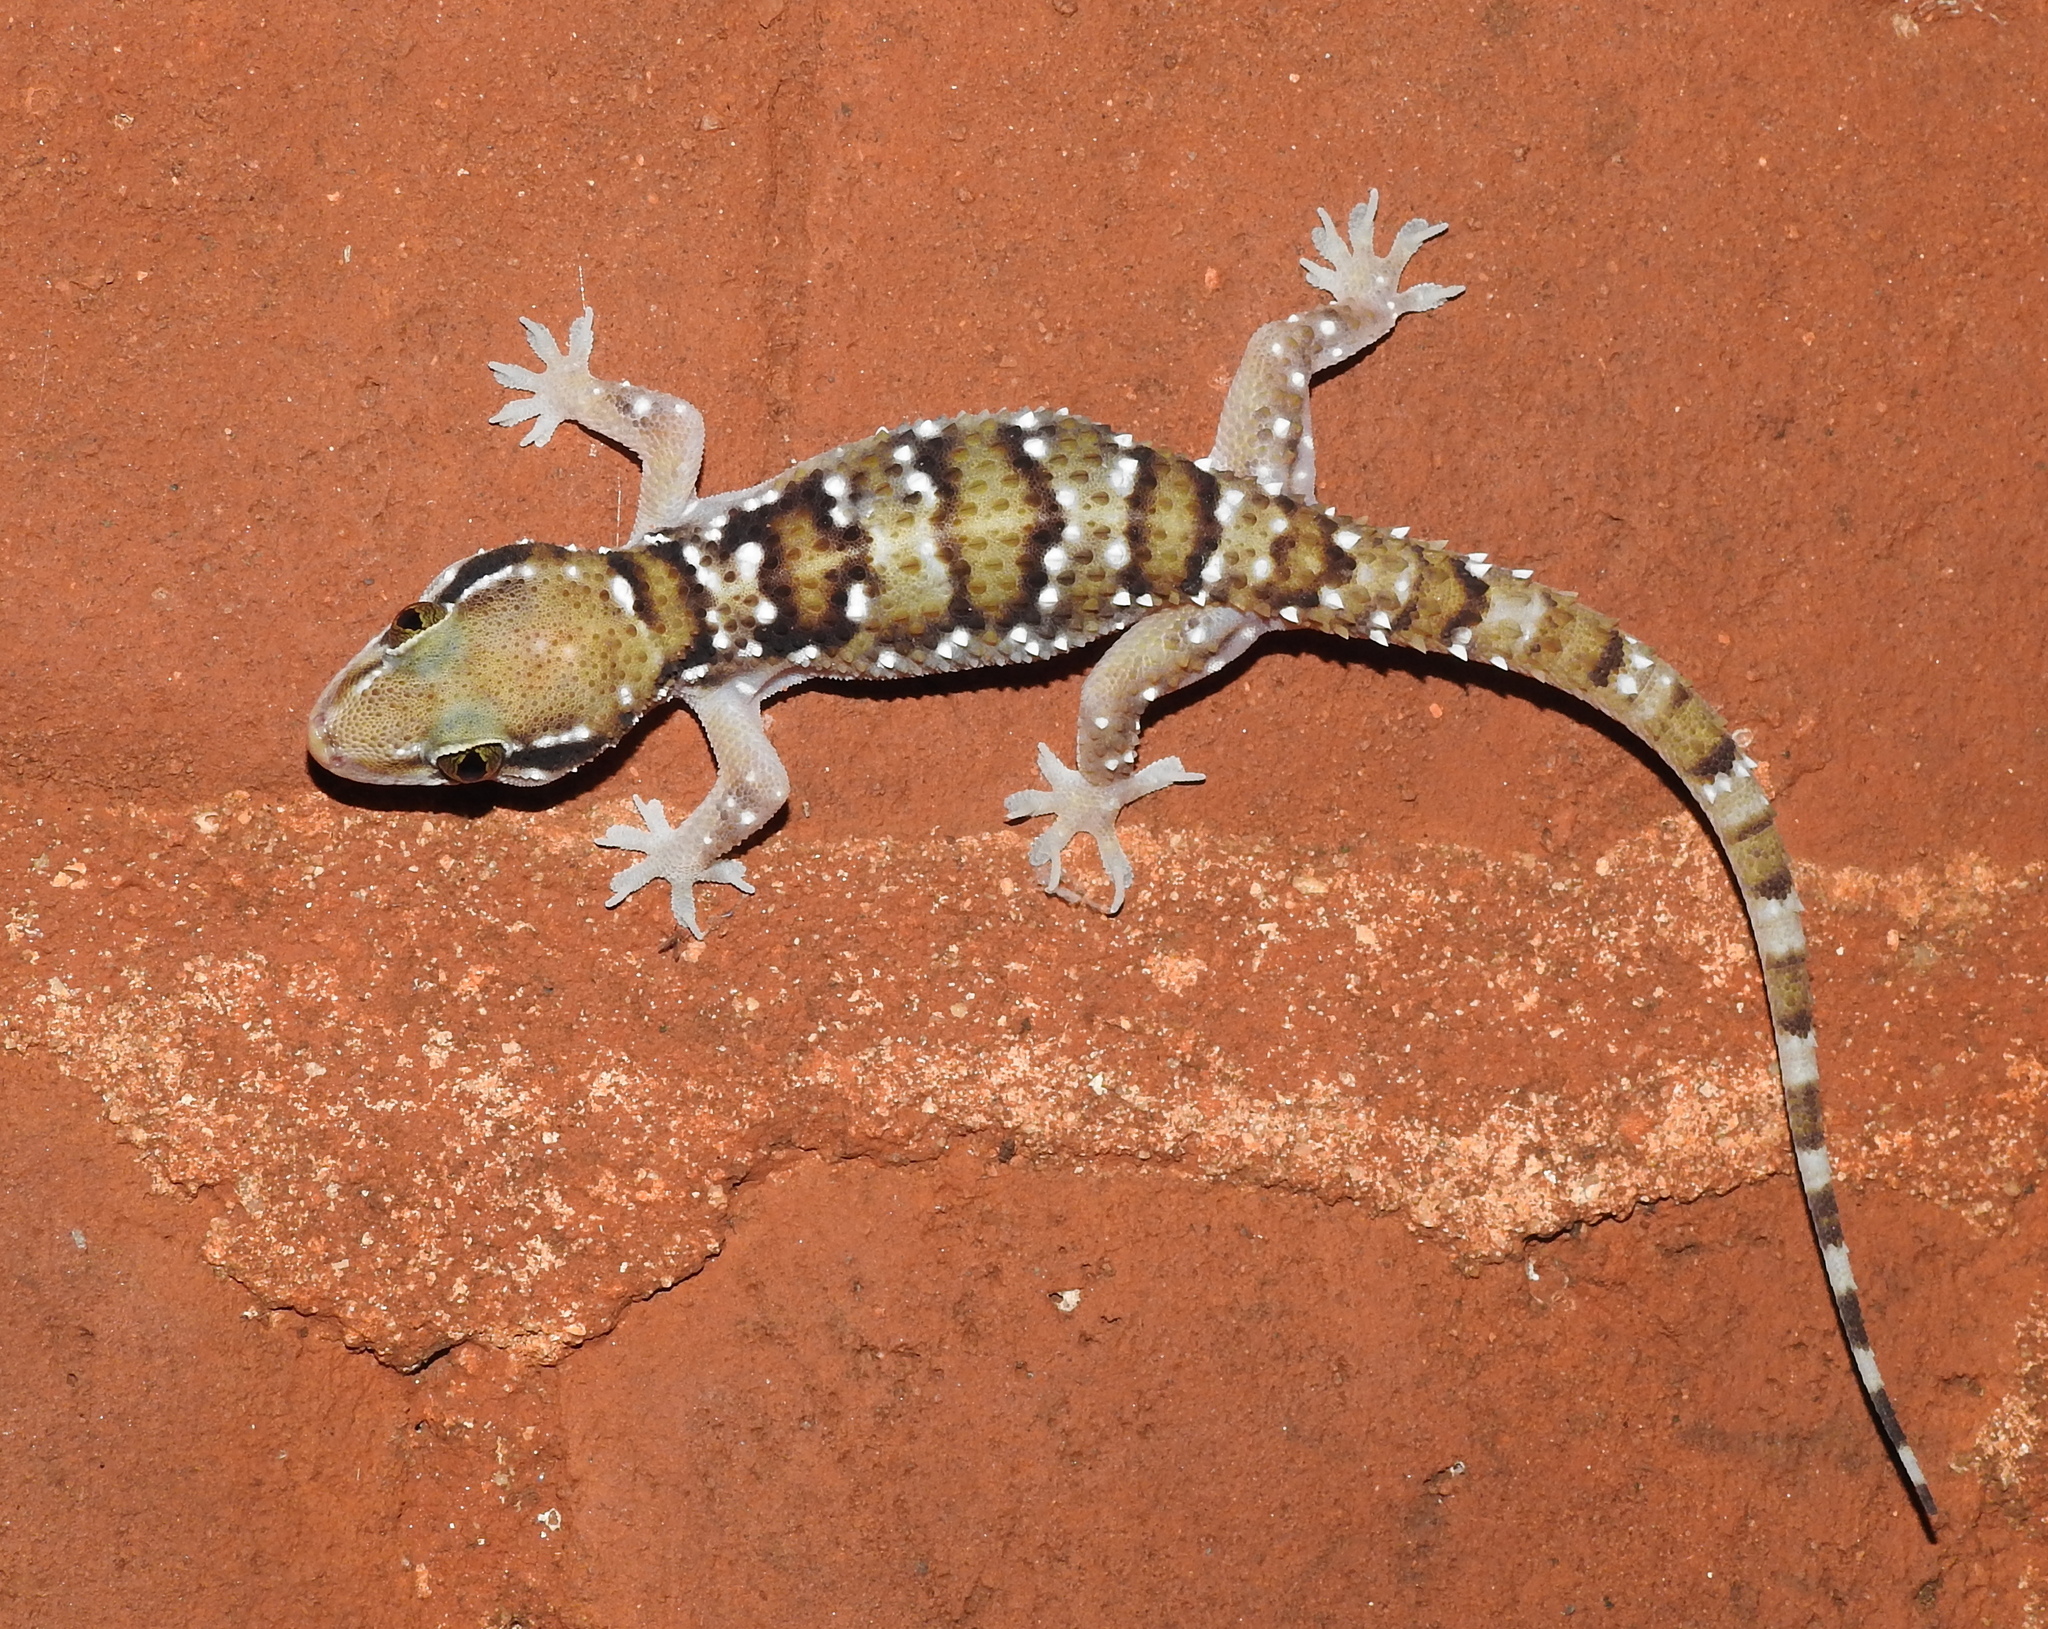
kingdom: Animalia
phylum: Chordata
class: Squamata
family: Gekkonidae
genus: Hemidactylus
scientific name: Hemidactylus triedrus
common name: Blotched house gecko
